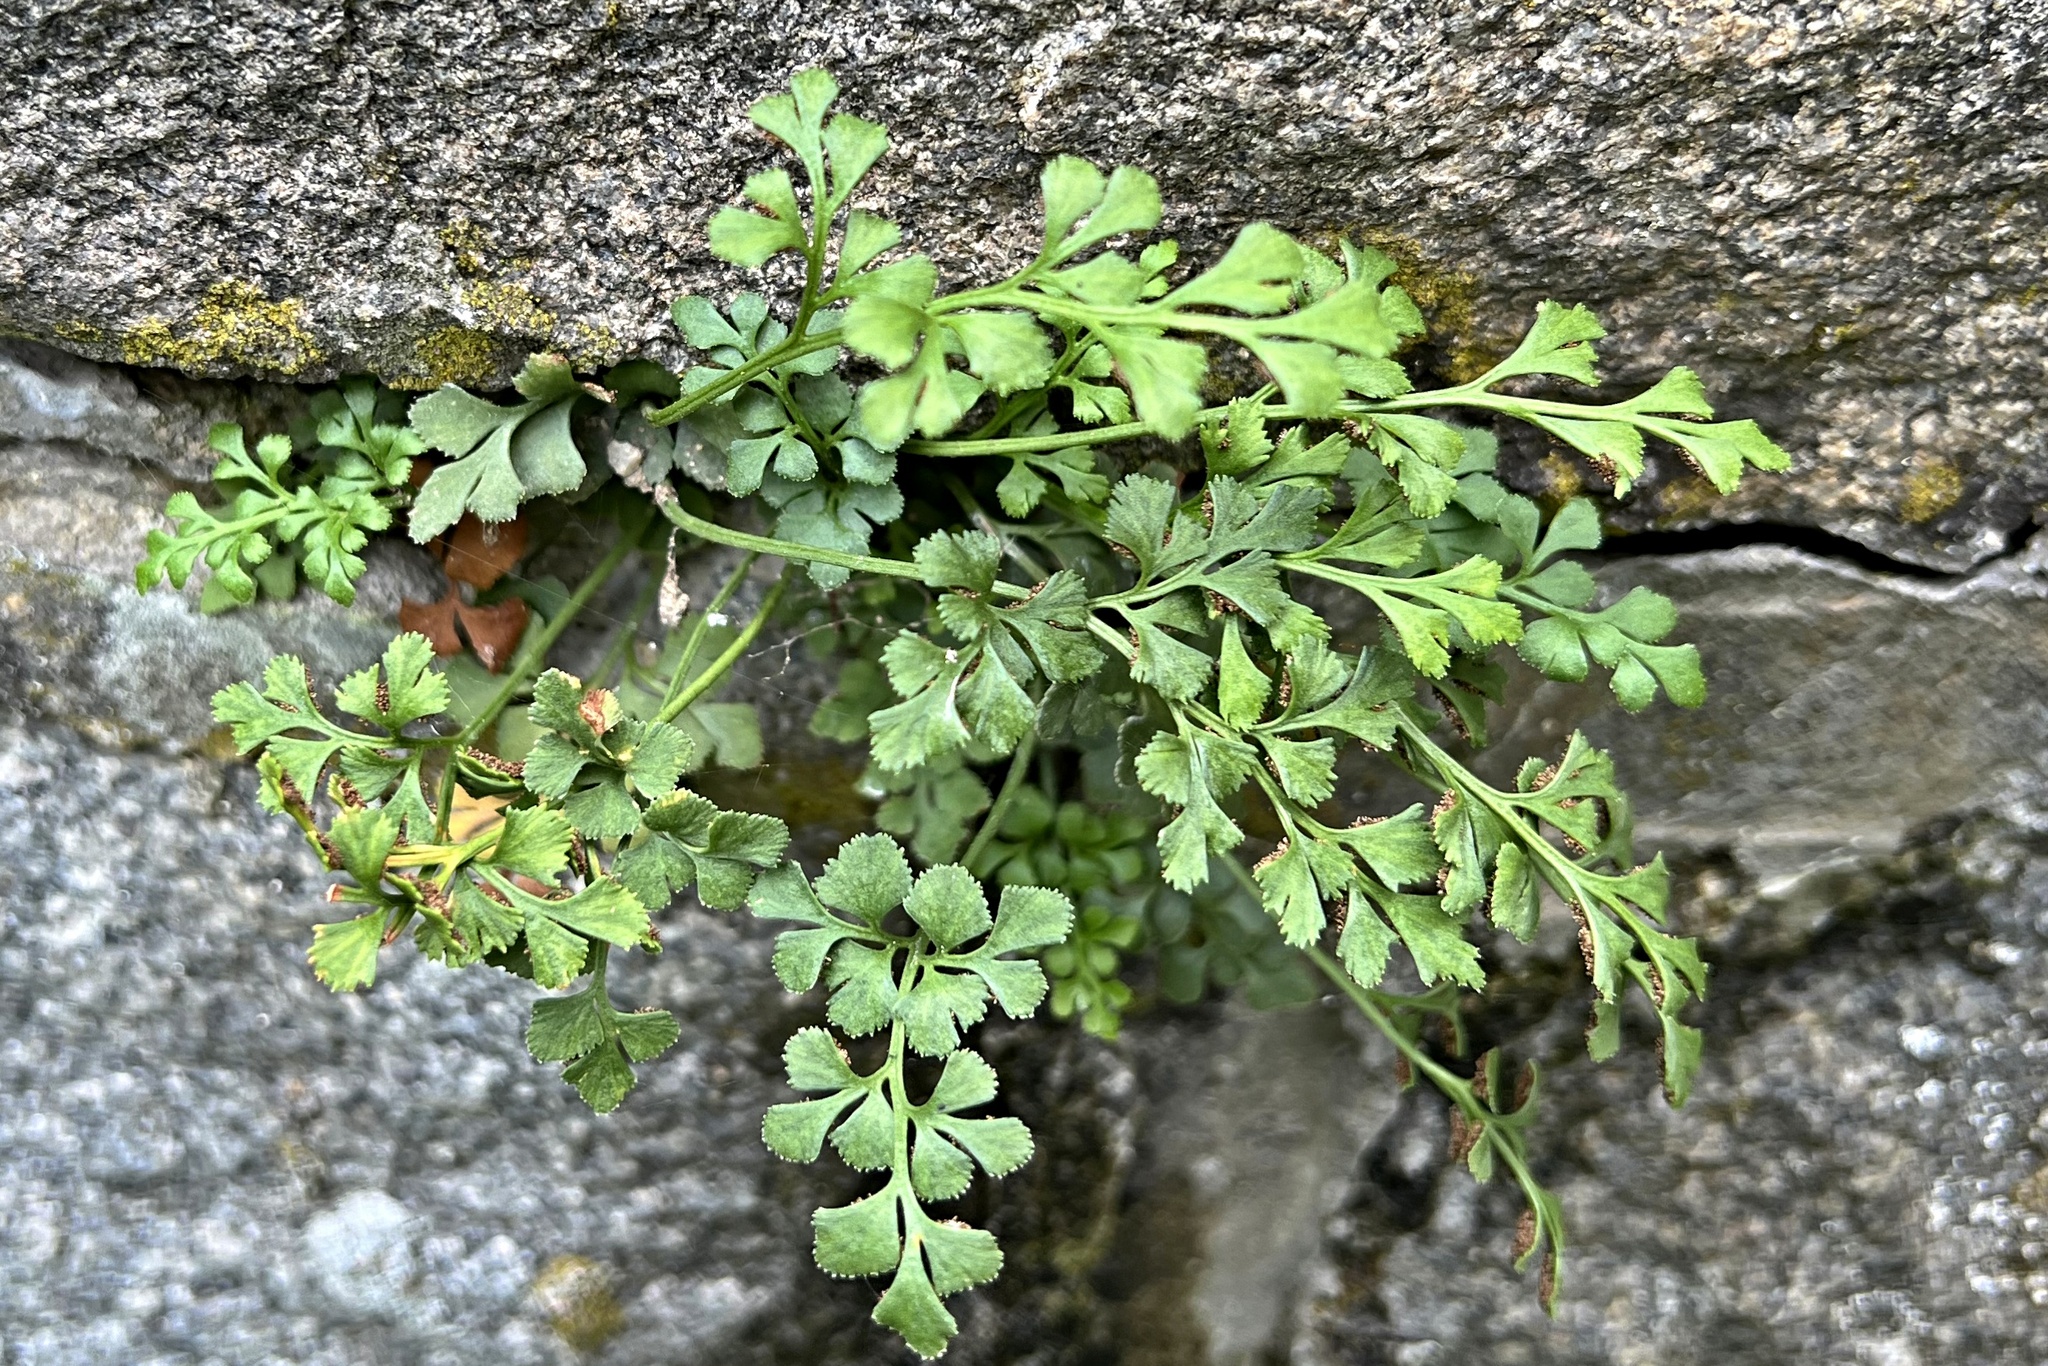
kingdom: Plantae
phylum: Tracheophyta
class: Polypodiopsida
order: Polypodiales
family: Aspleniaceae
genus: Asplenium
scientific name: Asplenium ruta-muraria
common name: Wall-rue
